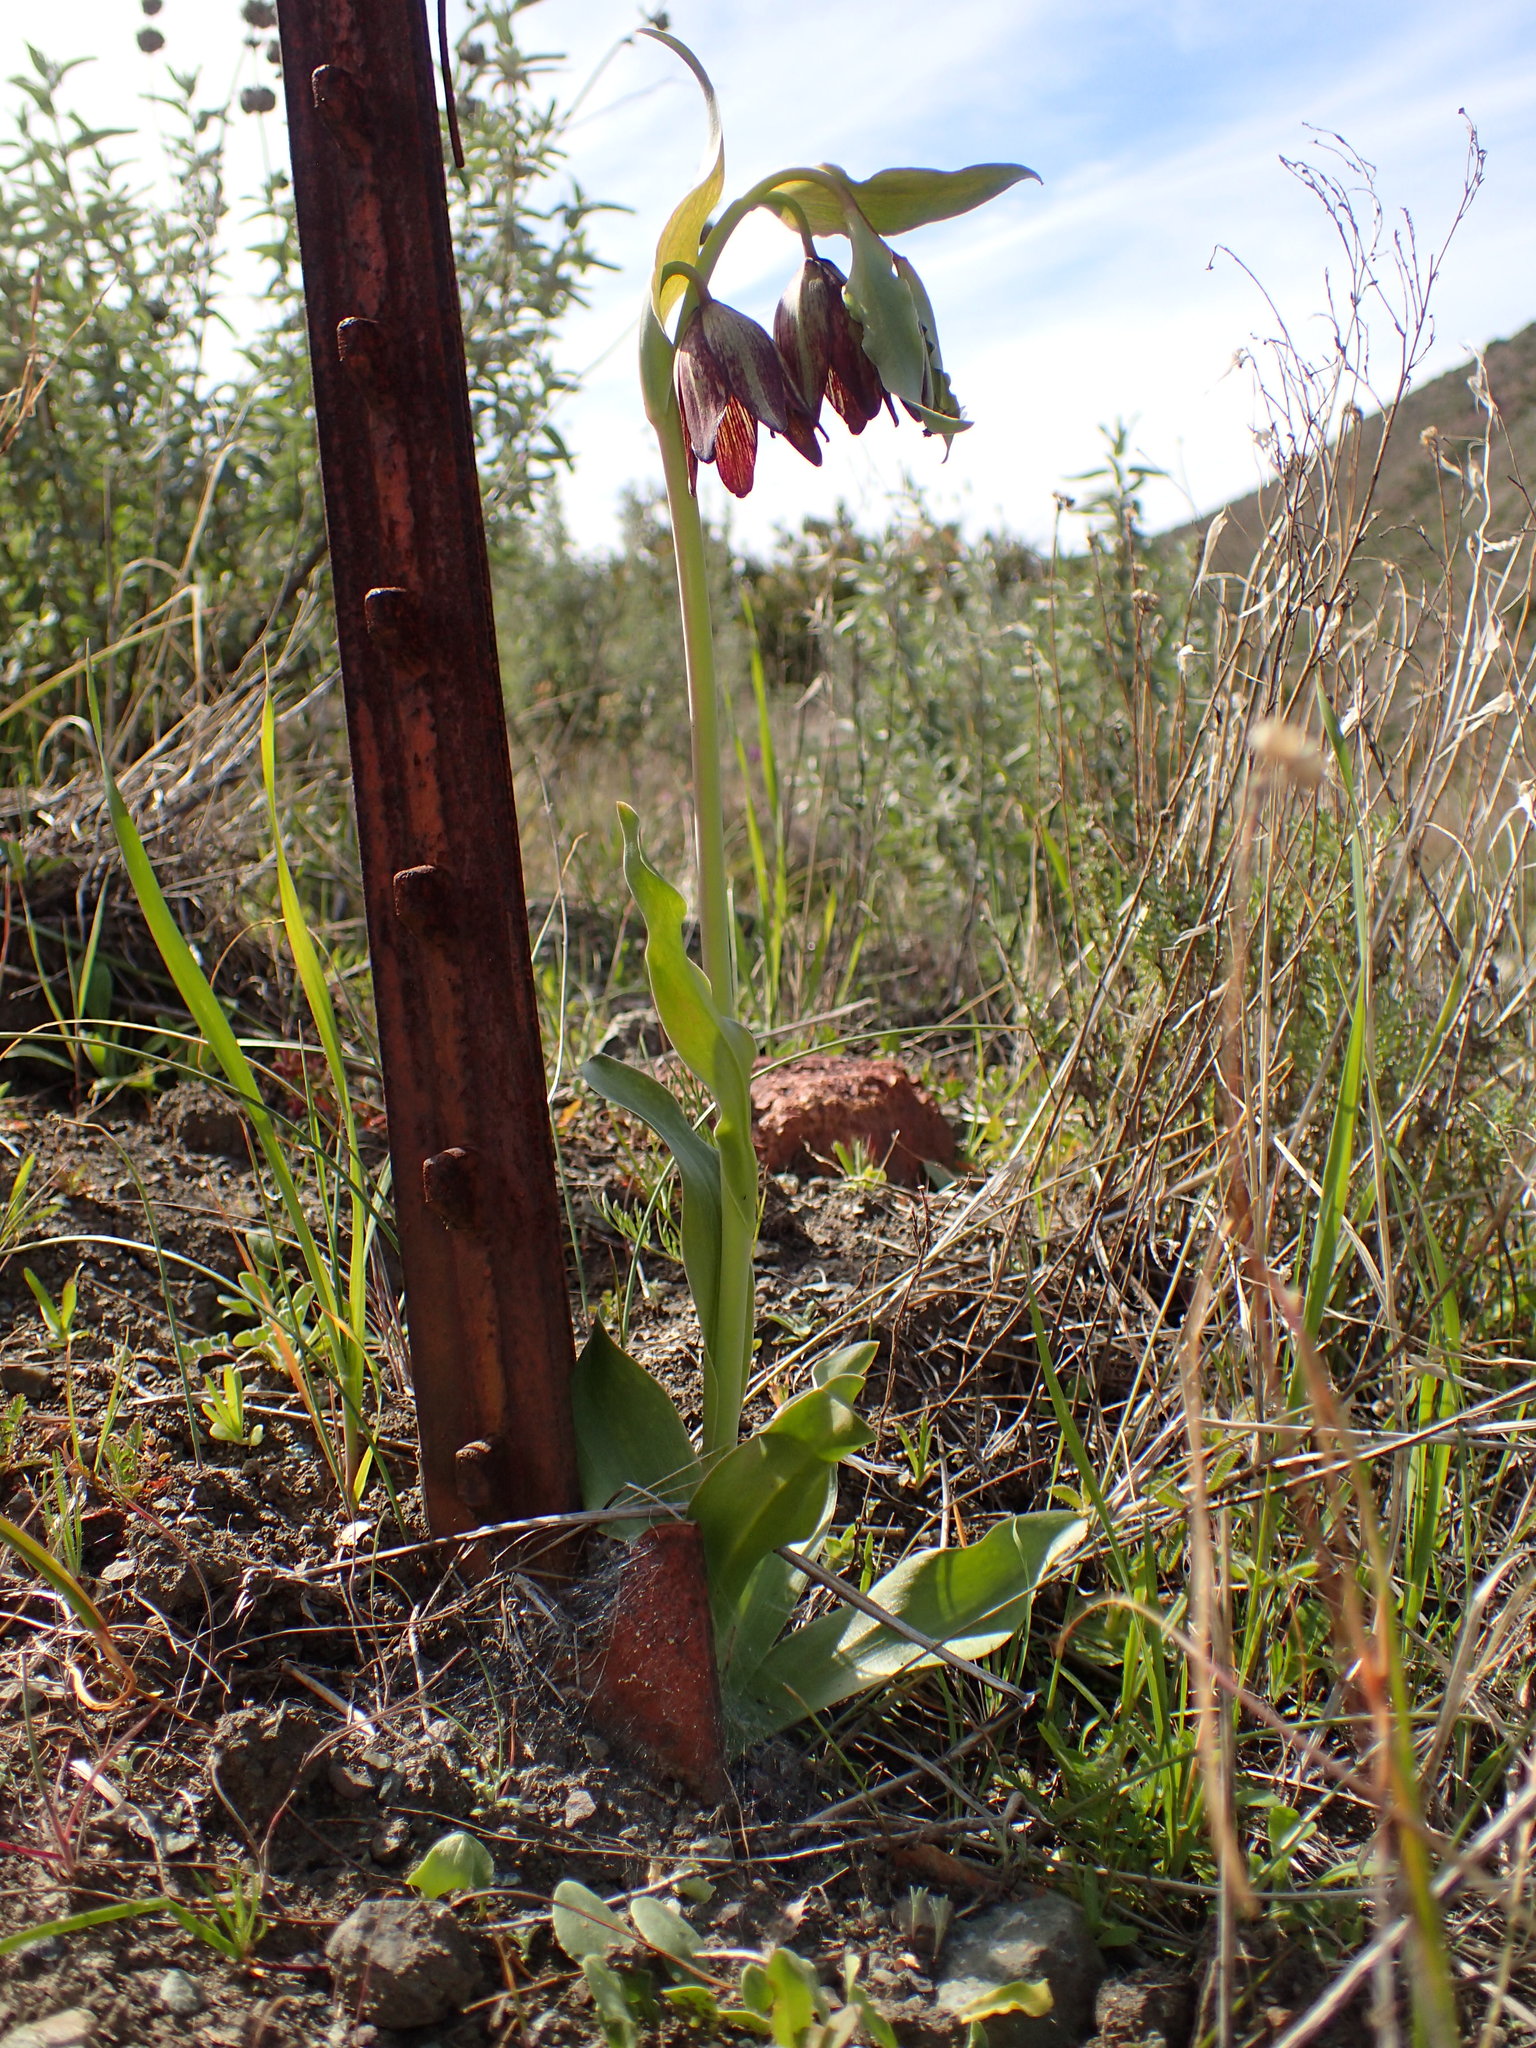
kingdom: Plantae
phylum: Tracheophyta
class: Liliopsida
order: Liliales
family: Liliaceae
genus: Fritillaria
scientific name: Fritillaria biflora
